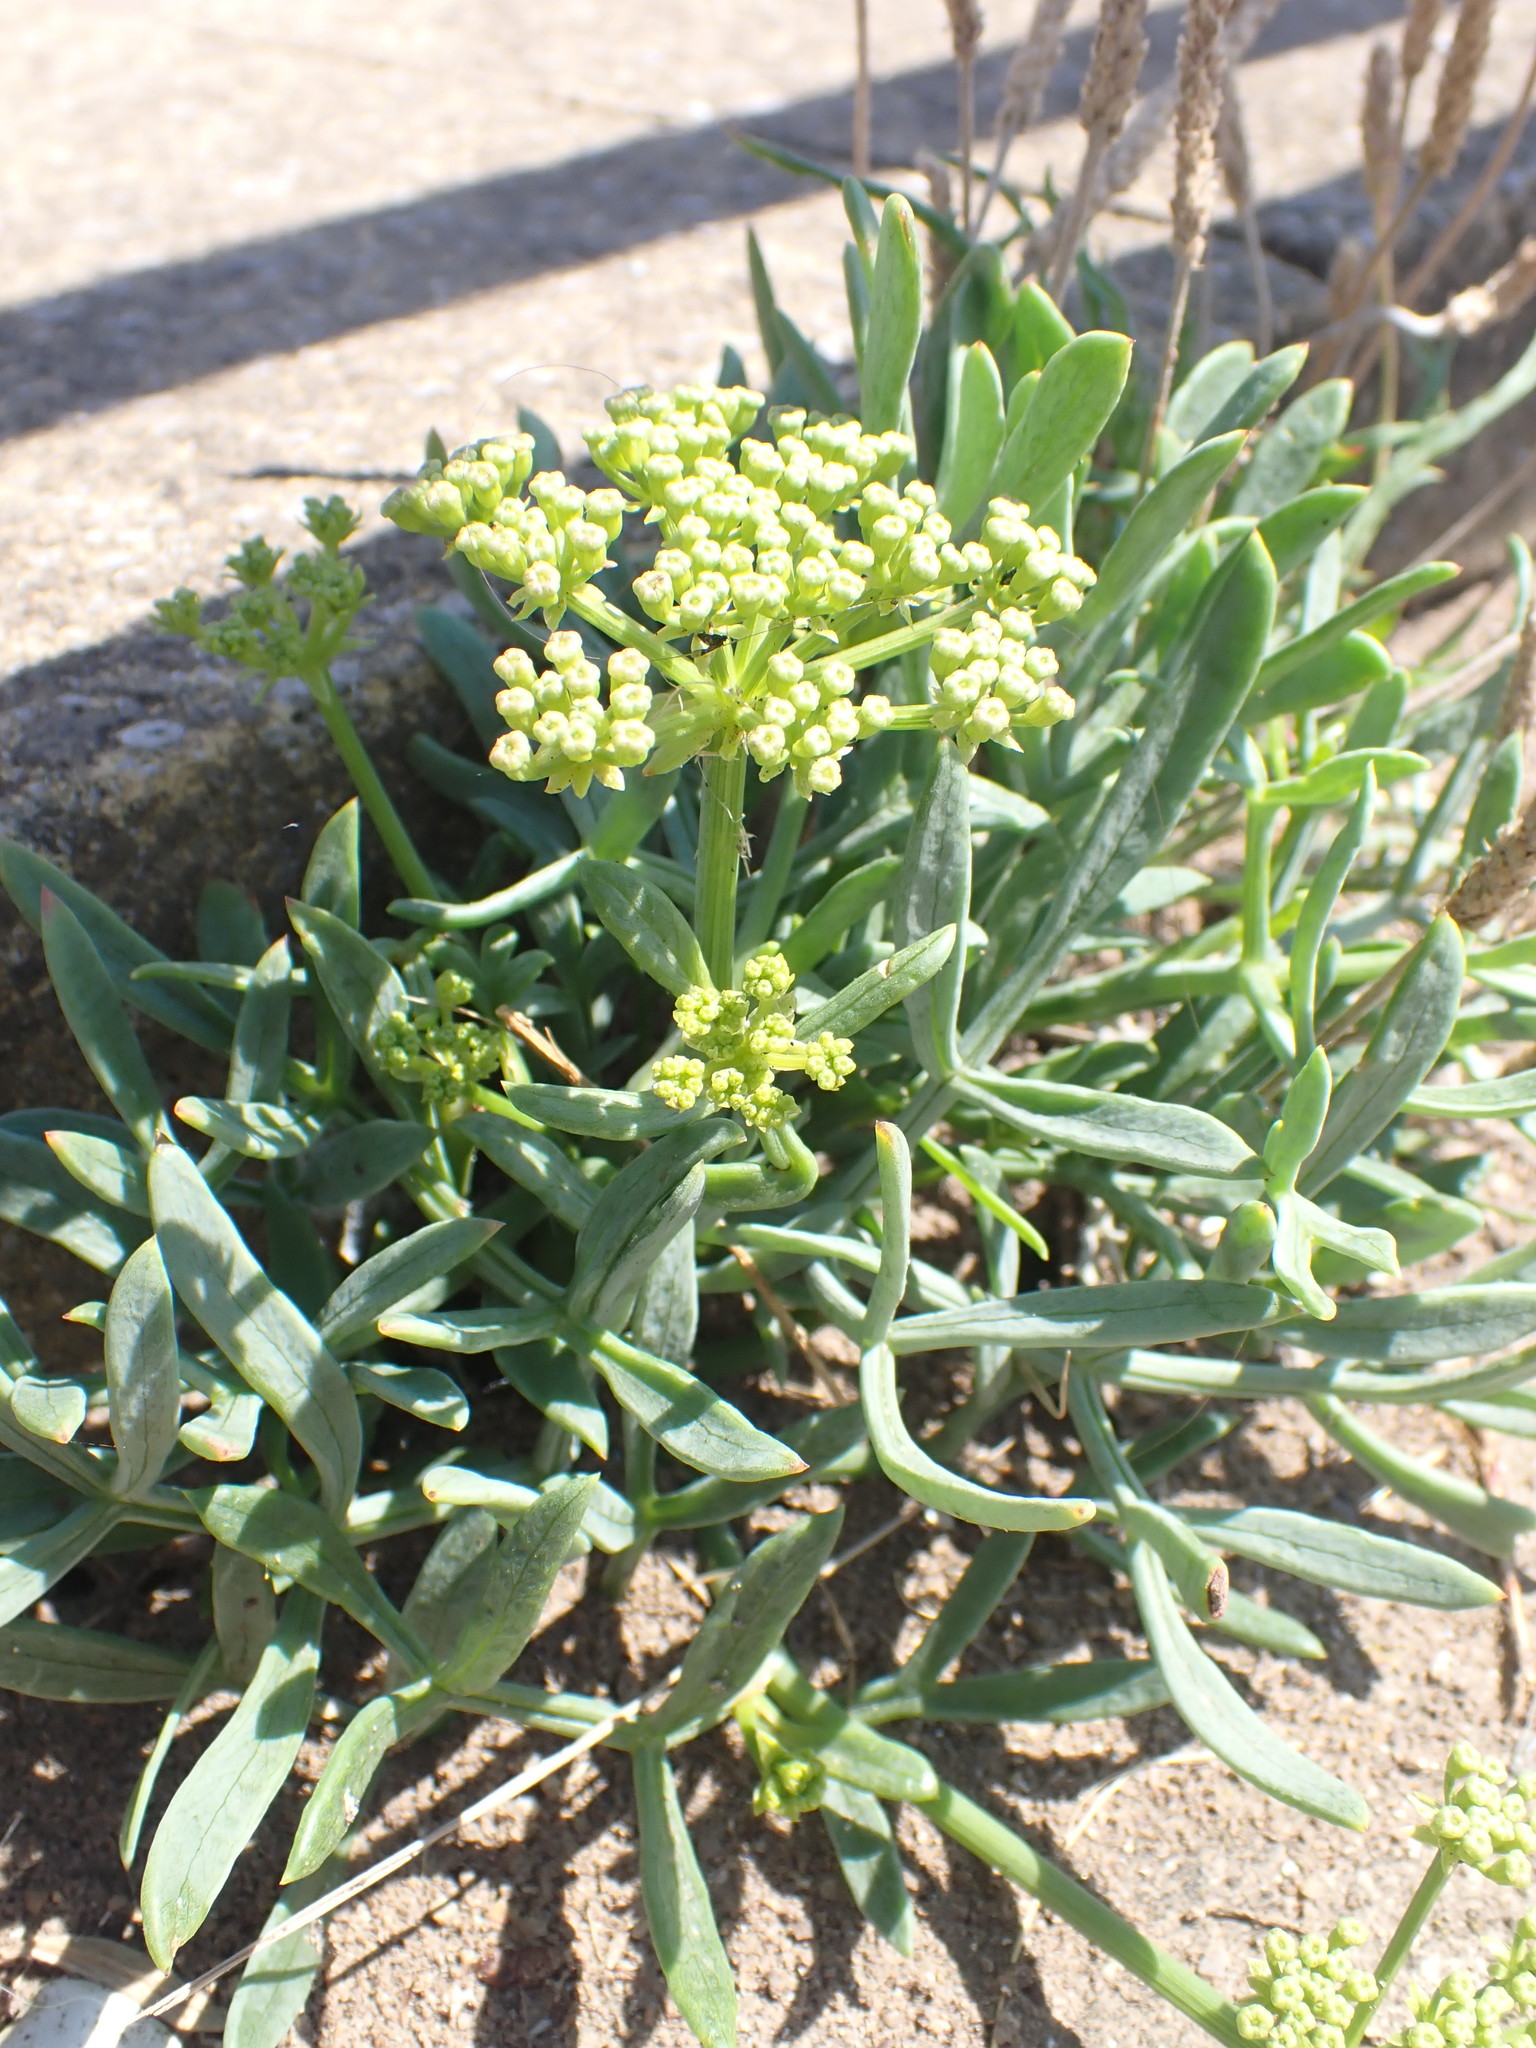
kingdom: Plantae
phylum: Tracheophyta
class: Magnoliopsida
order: Apiales
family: Apiaceae
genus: Crithmum
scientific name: Crithmum maritimum
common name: Rock samphire
